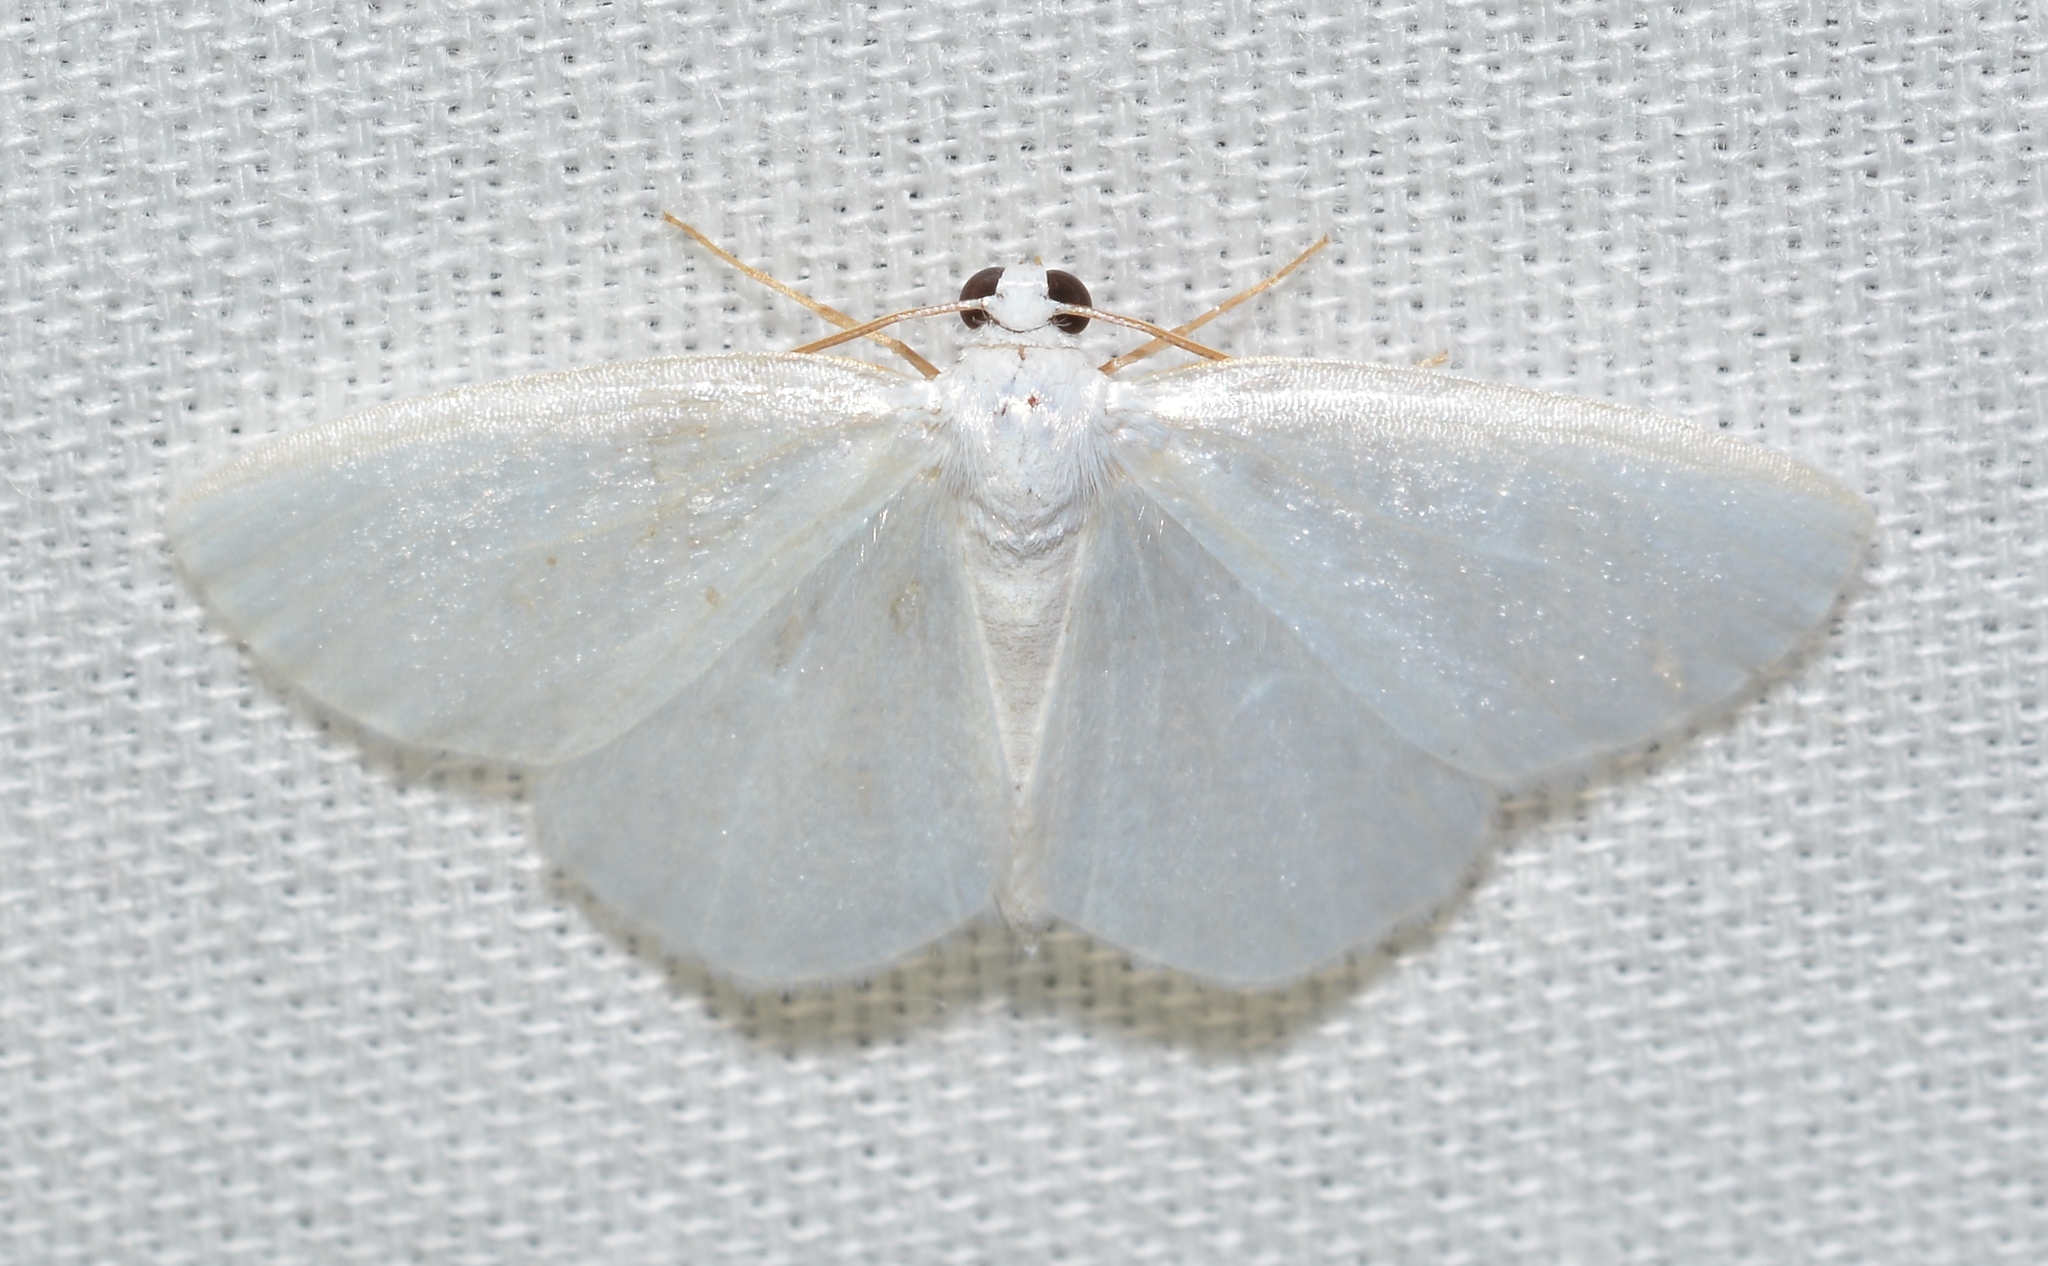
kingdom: Animalia
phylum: Arthropoda
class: Insecta
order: Lepidoptera
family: Geometridae
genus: Lomographa
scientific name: Lomographa vestaliata
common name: White spring moth
